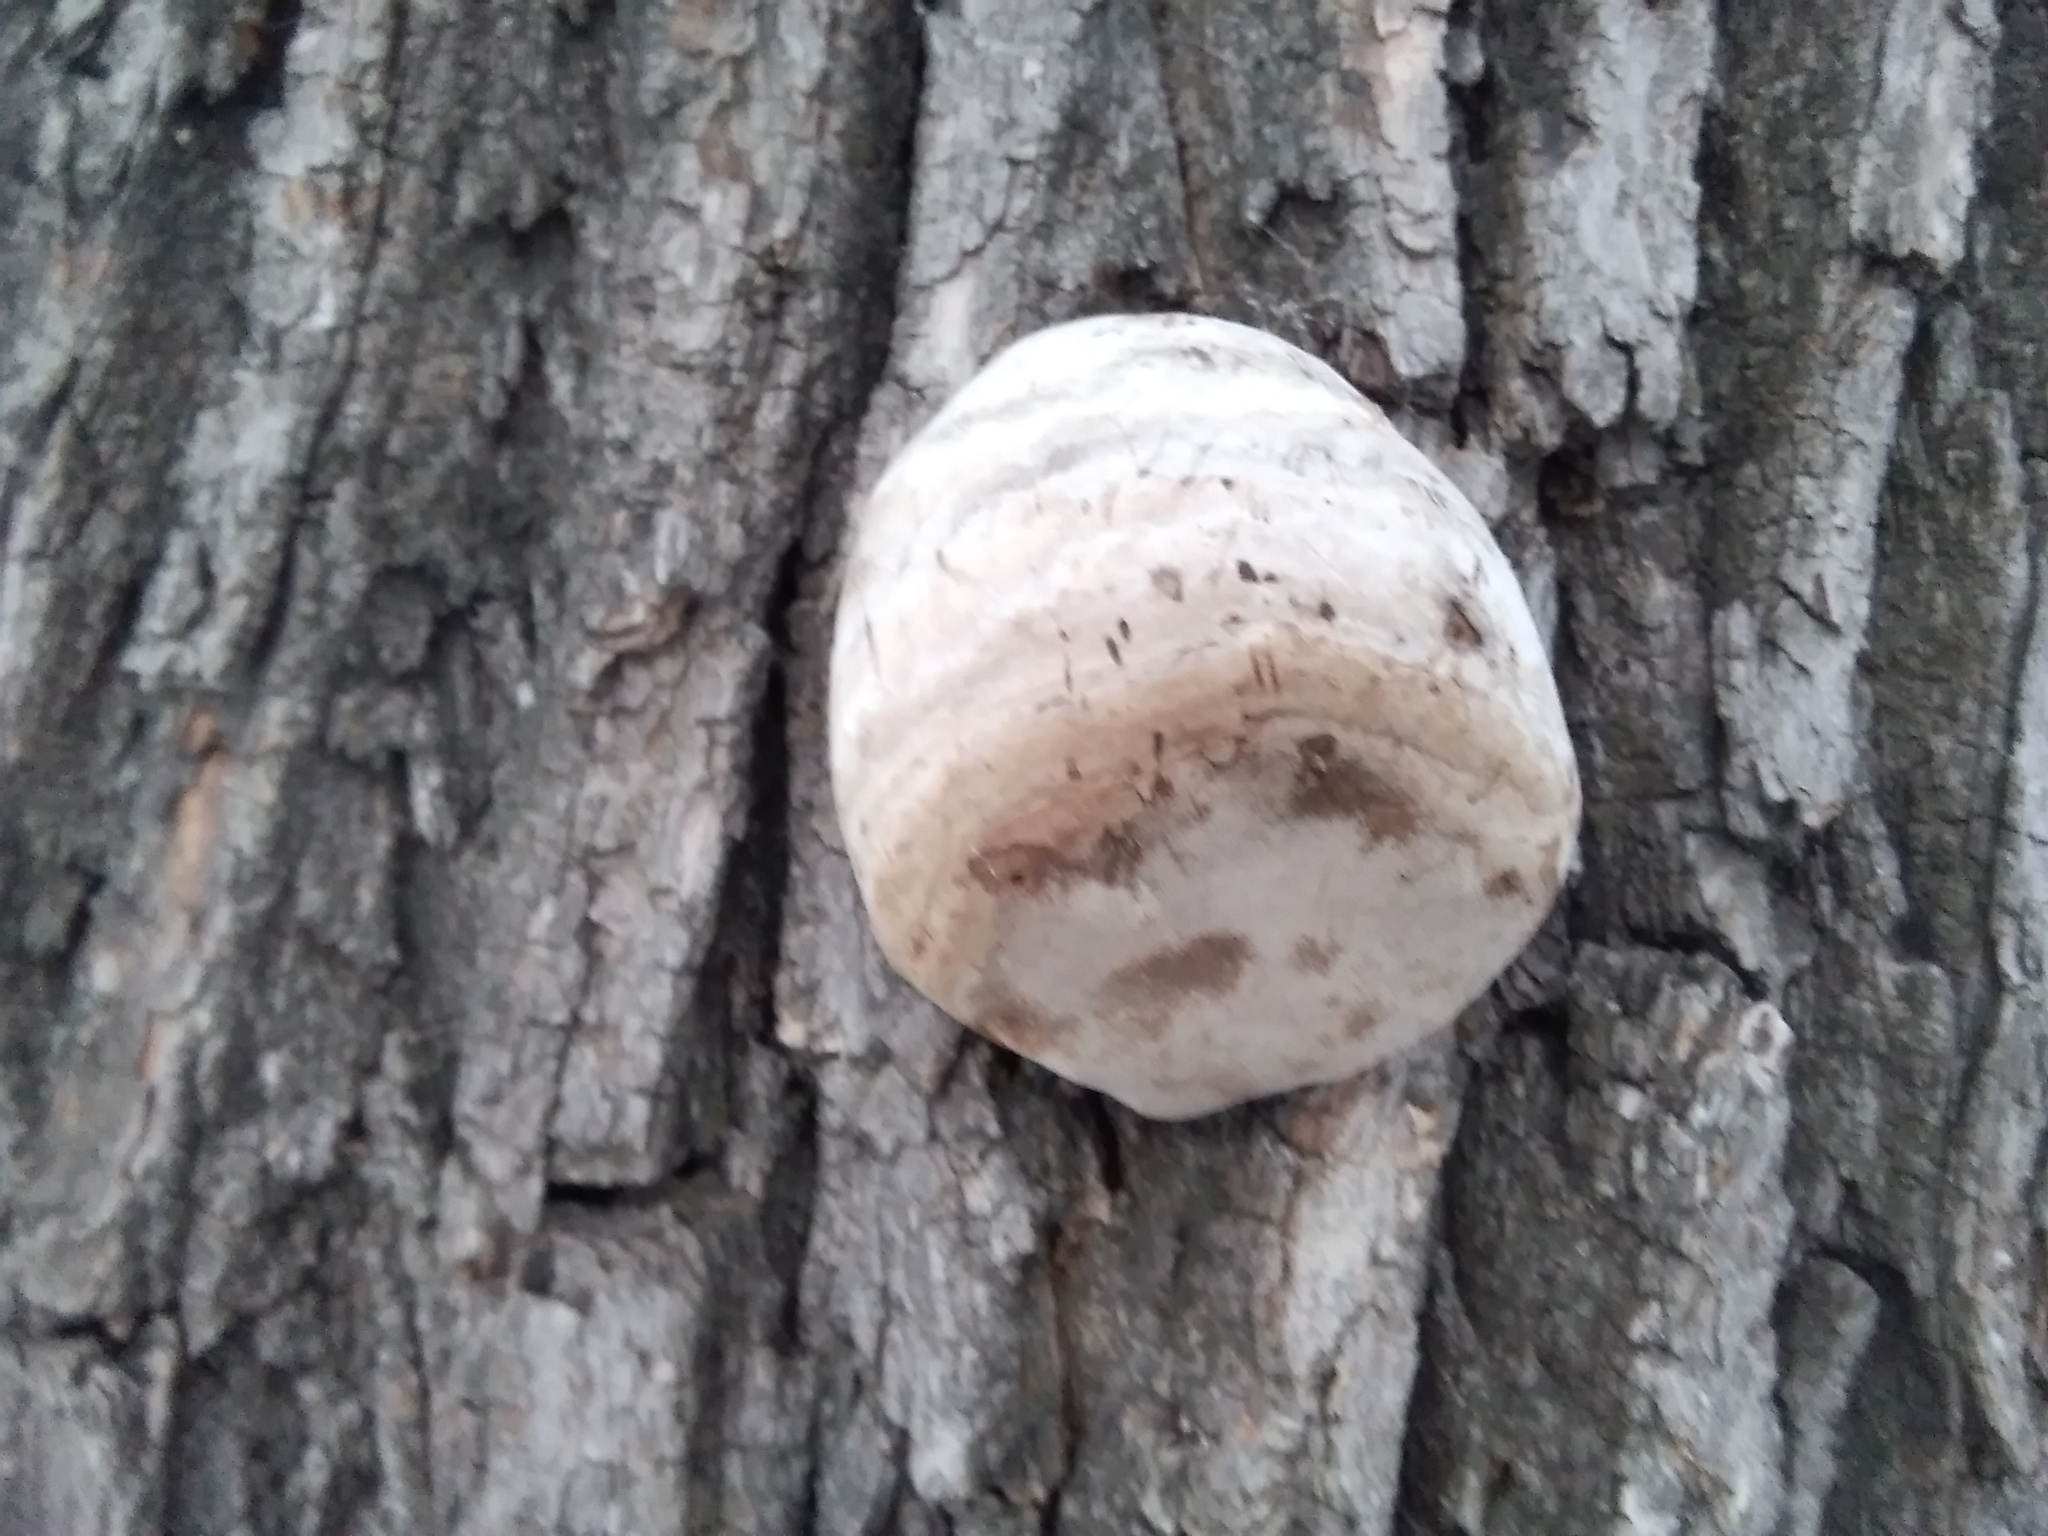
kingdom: Fungi
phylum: Basidiomycota
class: Agaricomycetes
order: Hymenochaetales
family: Hymenochaetaceae
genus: Fomitiporia
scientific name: Fomitiporia robusta
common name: Robust bracket
